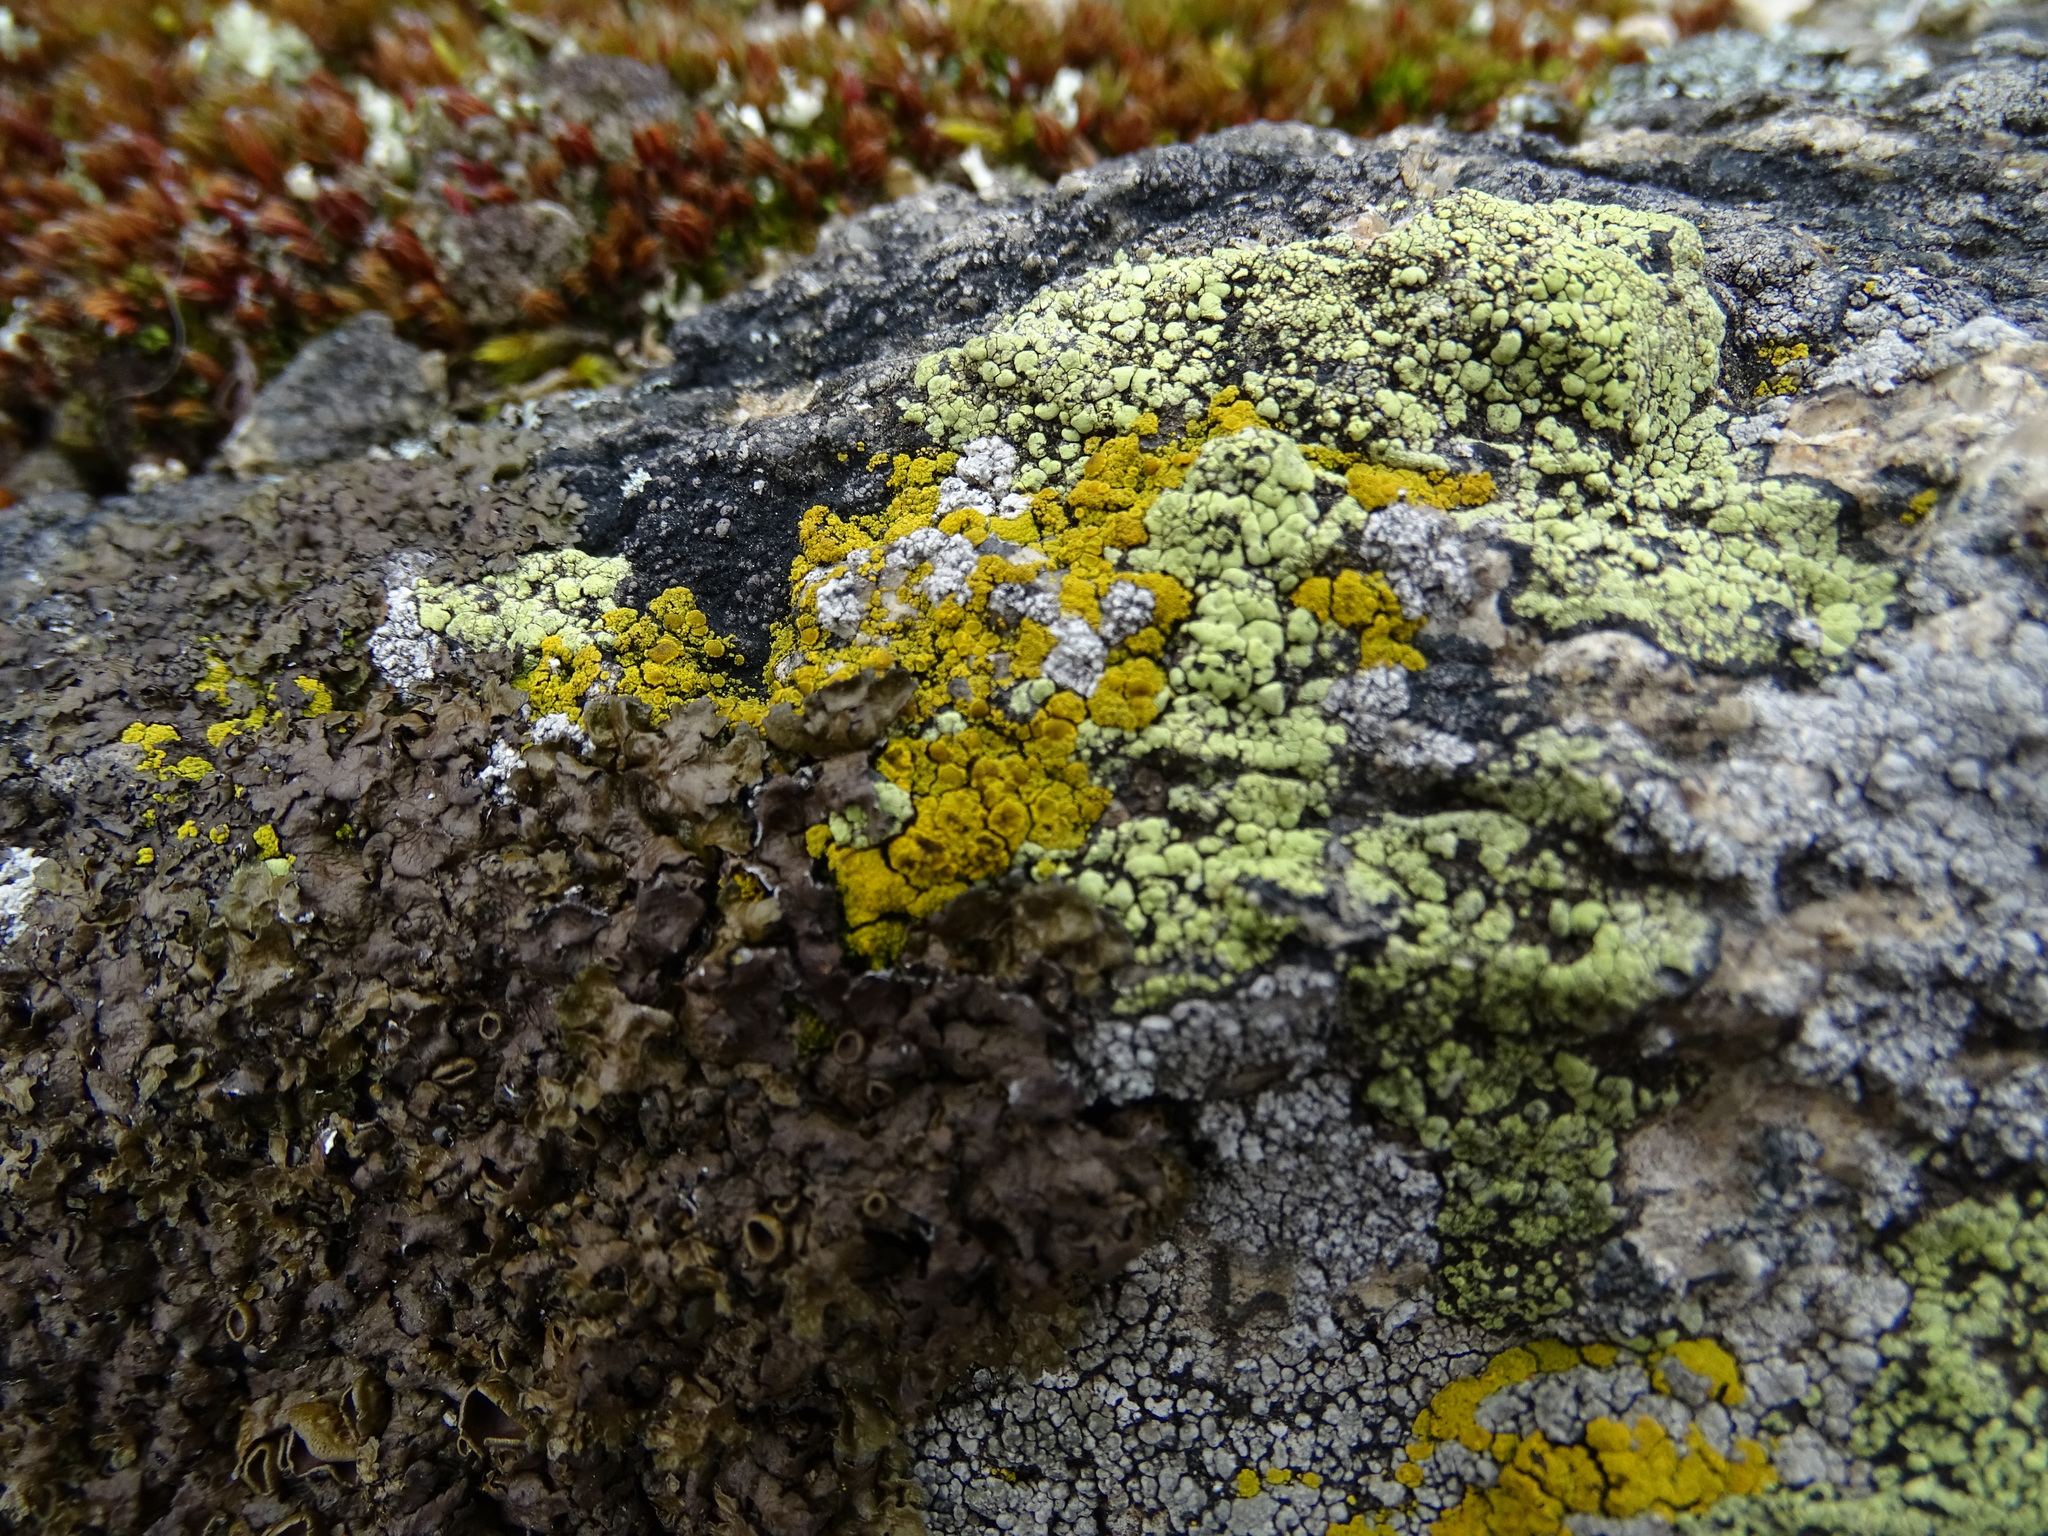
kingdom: Fungi
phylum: Ascomycota
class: Candelariomycetes
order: Candelariales
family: Candelariaceae
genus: Candelariella
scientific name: Candelariella vitellina
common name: Common goldspeck
